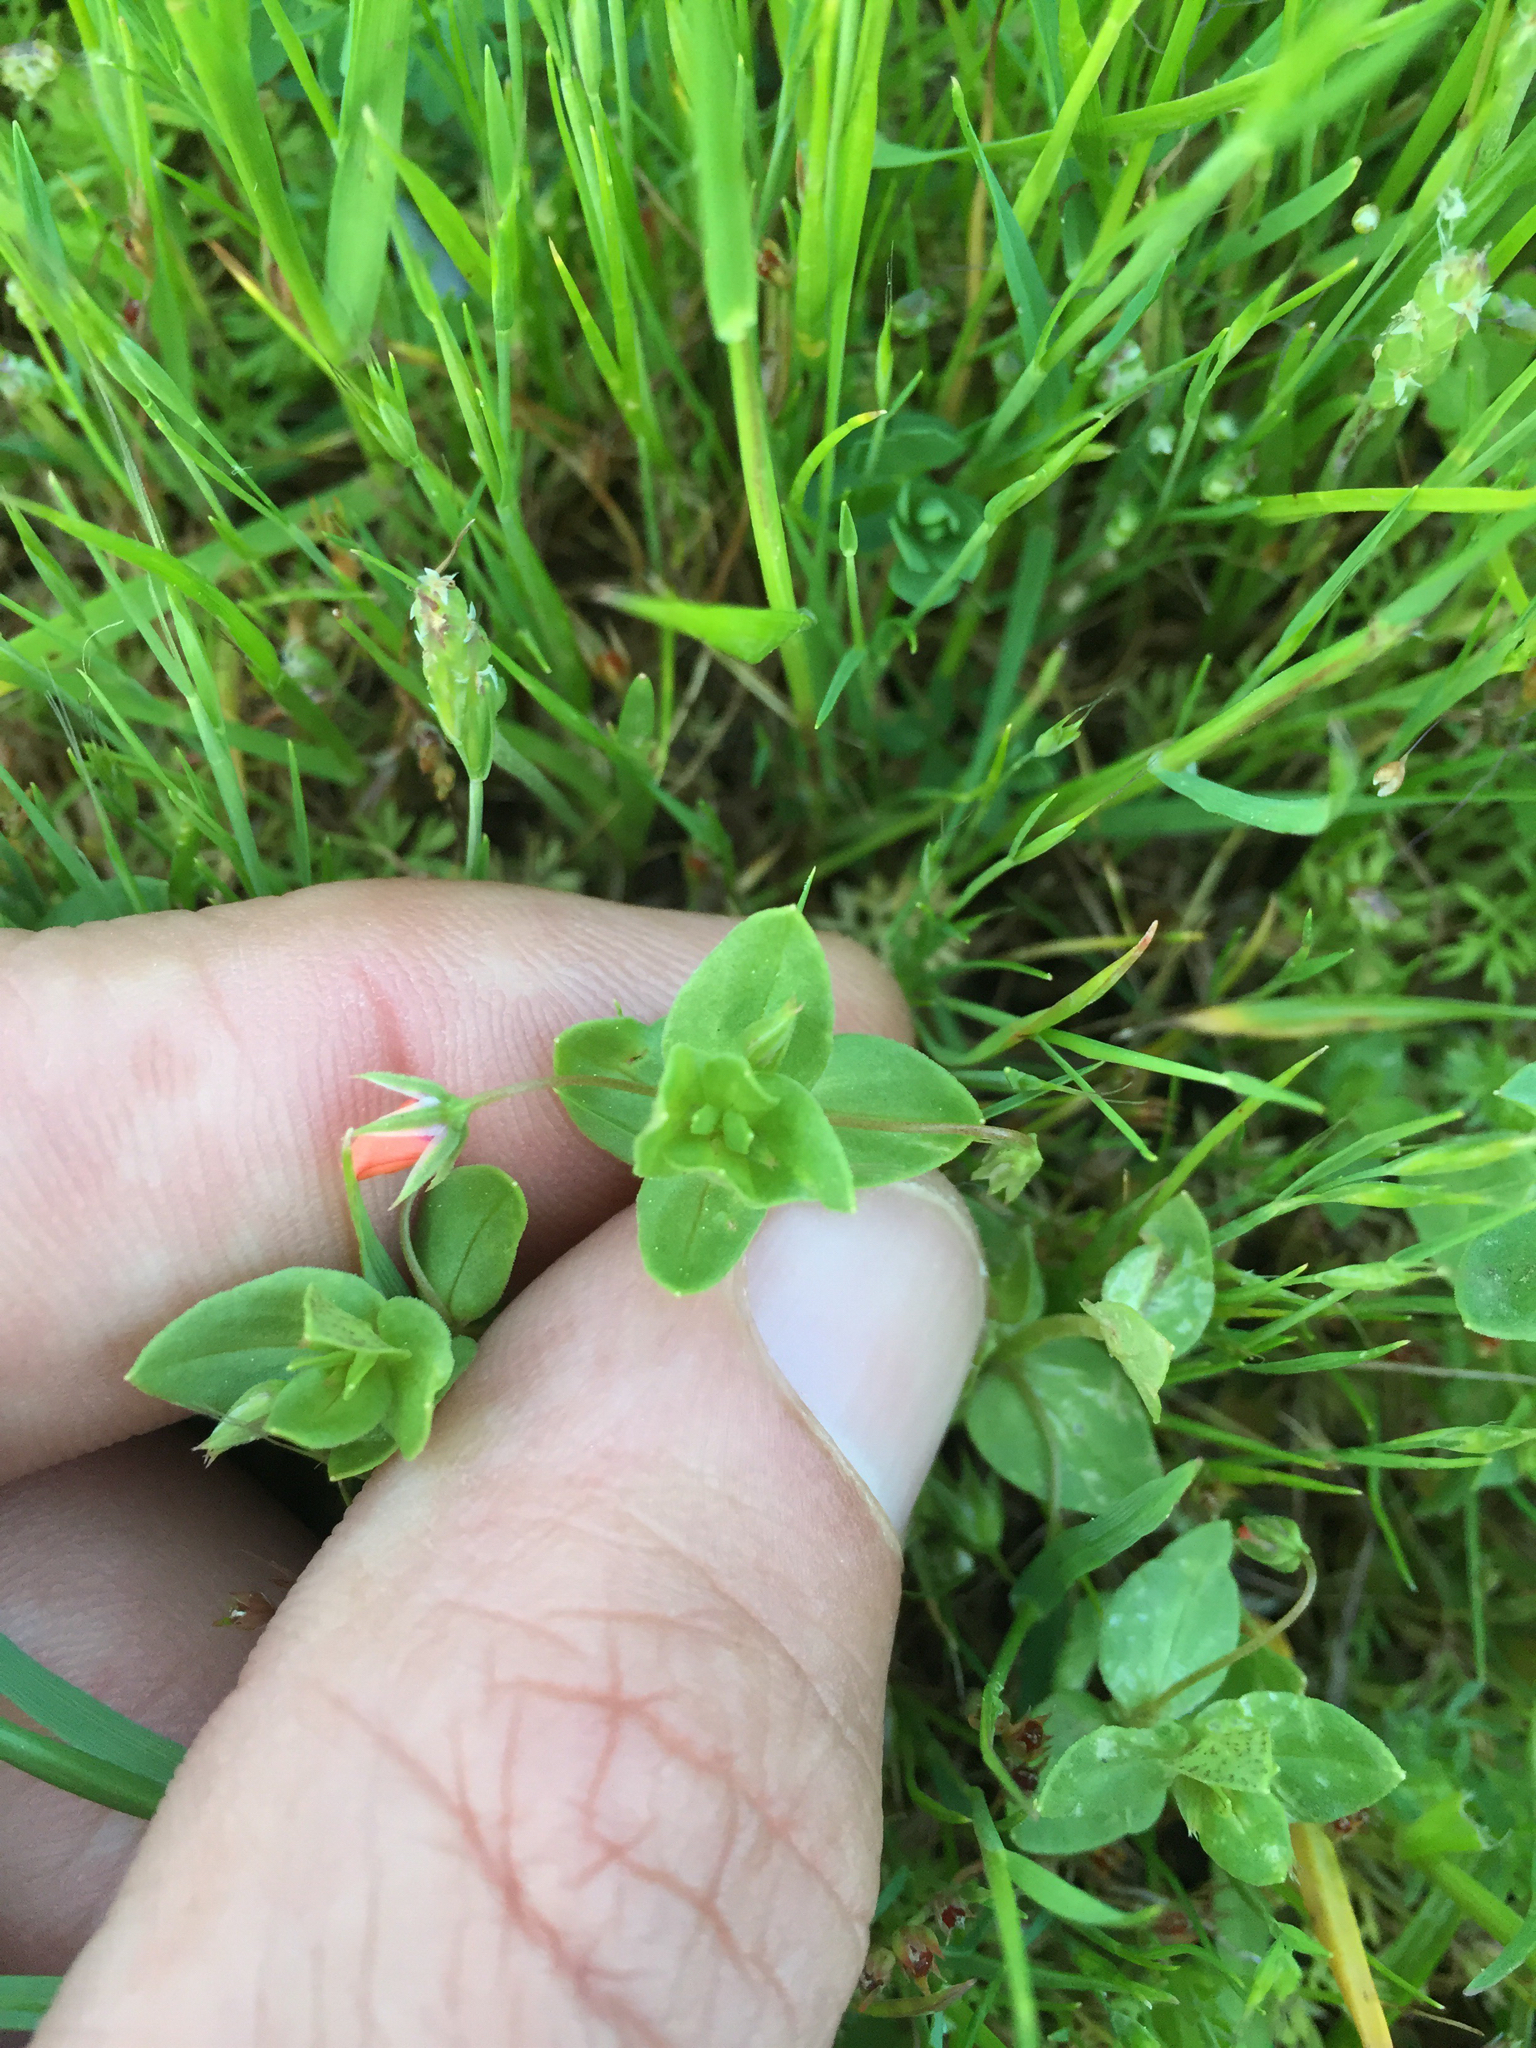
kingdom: Plantae
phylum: Tracheophyta
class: Magnoliopsida
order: Ericales
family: Primulaceae
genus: Lysimachia
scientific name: Lysimachia arvensis
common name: Scarlet pimpernel
